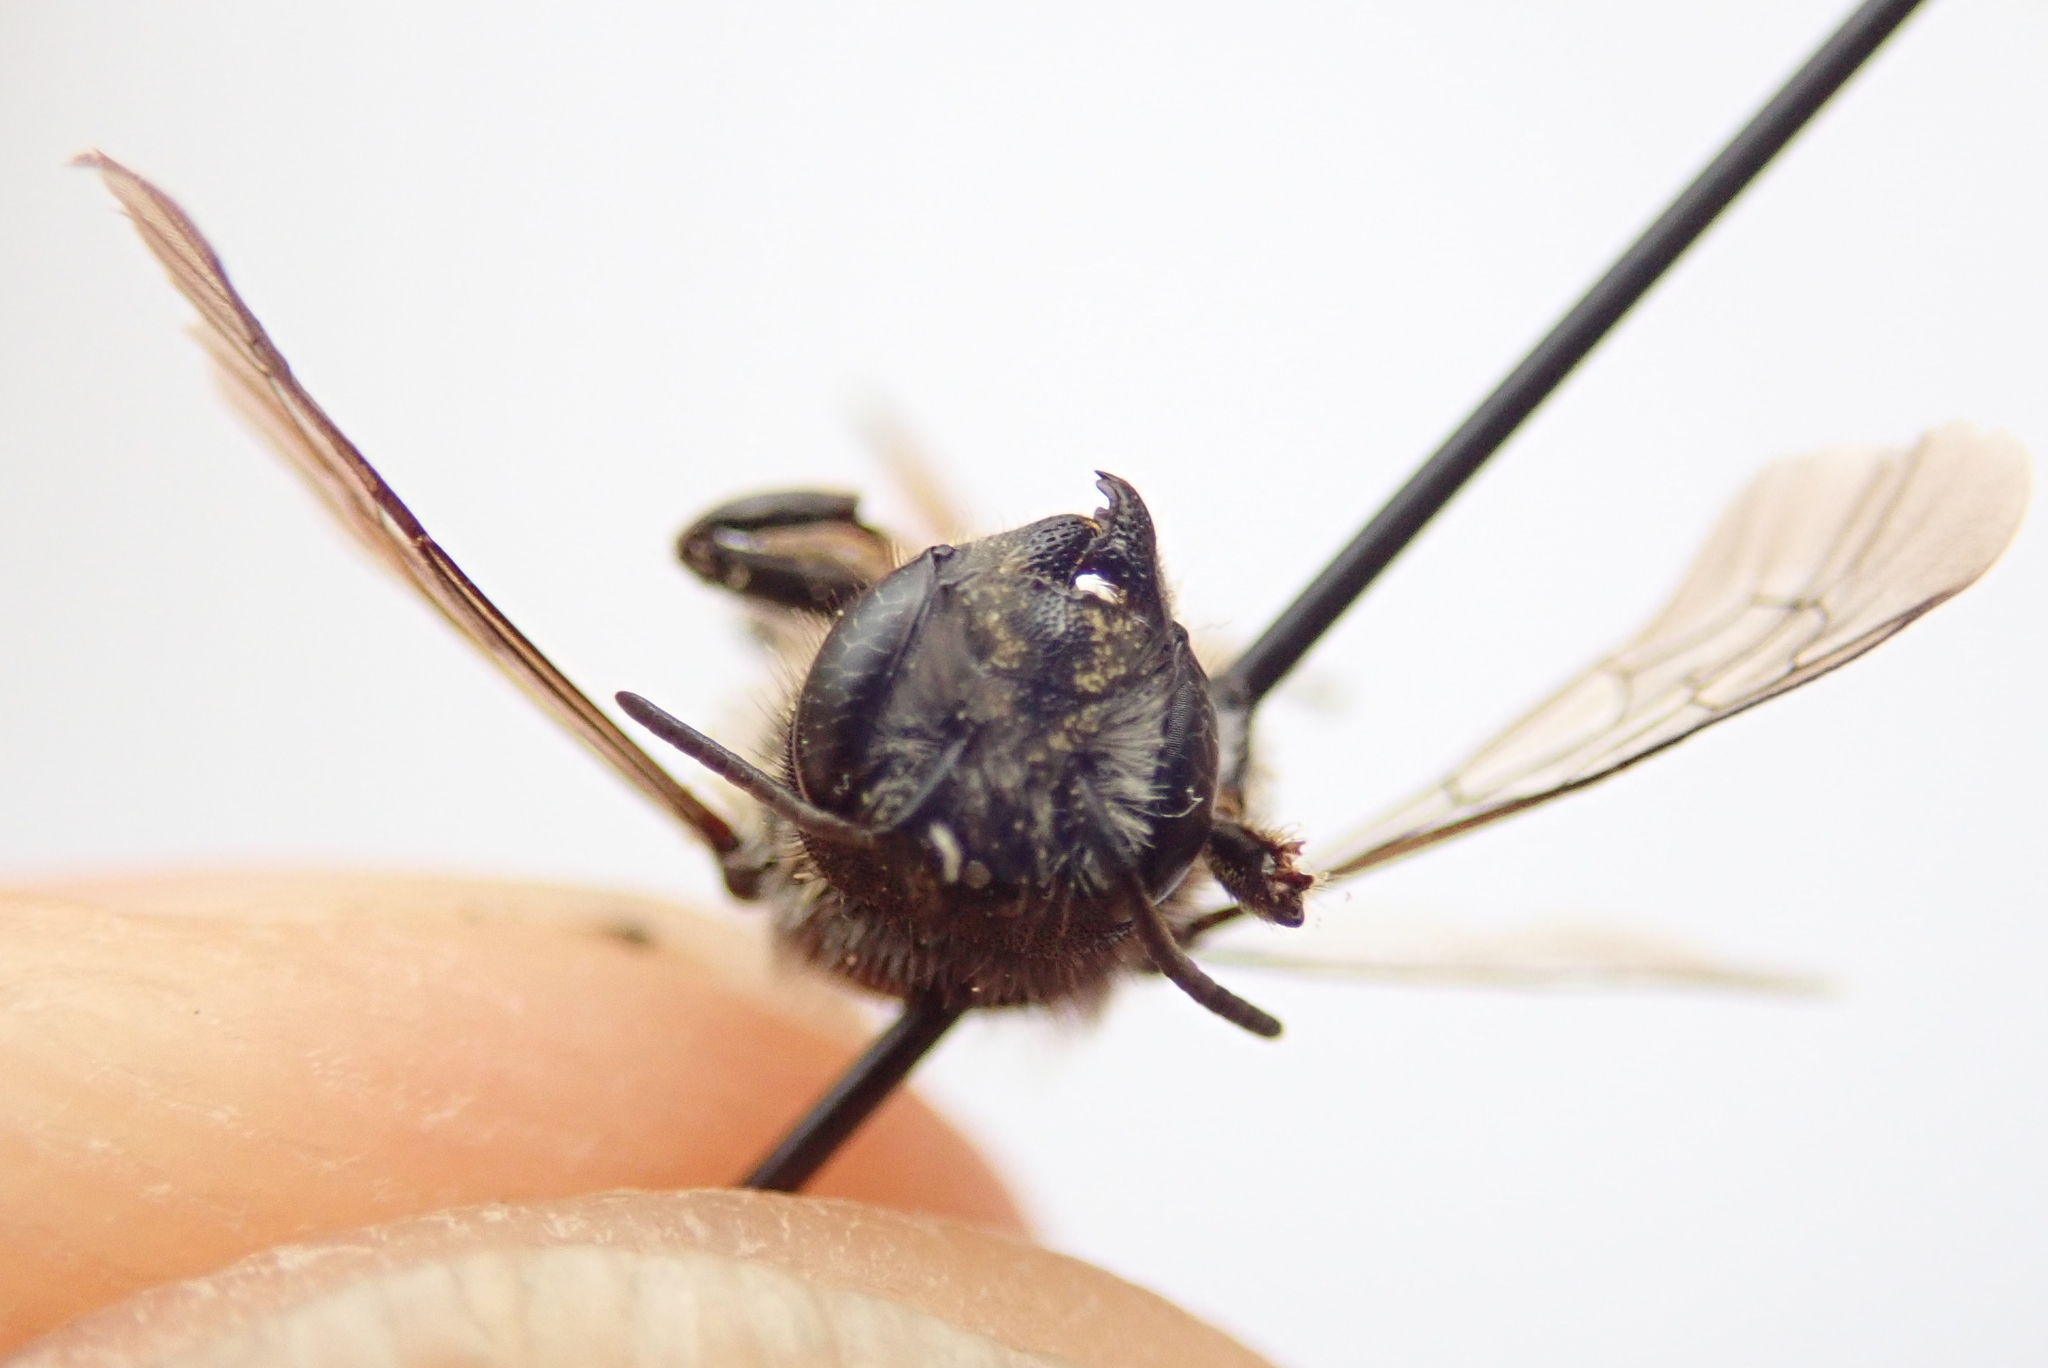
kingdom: Animalia
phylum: Arthropoda
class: Insecta
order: Hymenoptera
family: Megachilidae
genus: Megachile
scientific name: Megachile relativa
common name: Golden-tailed leafcutter
